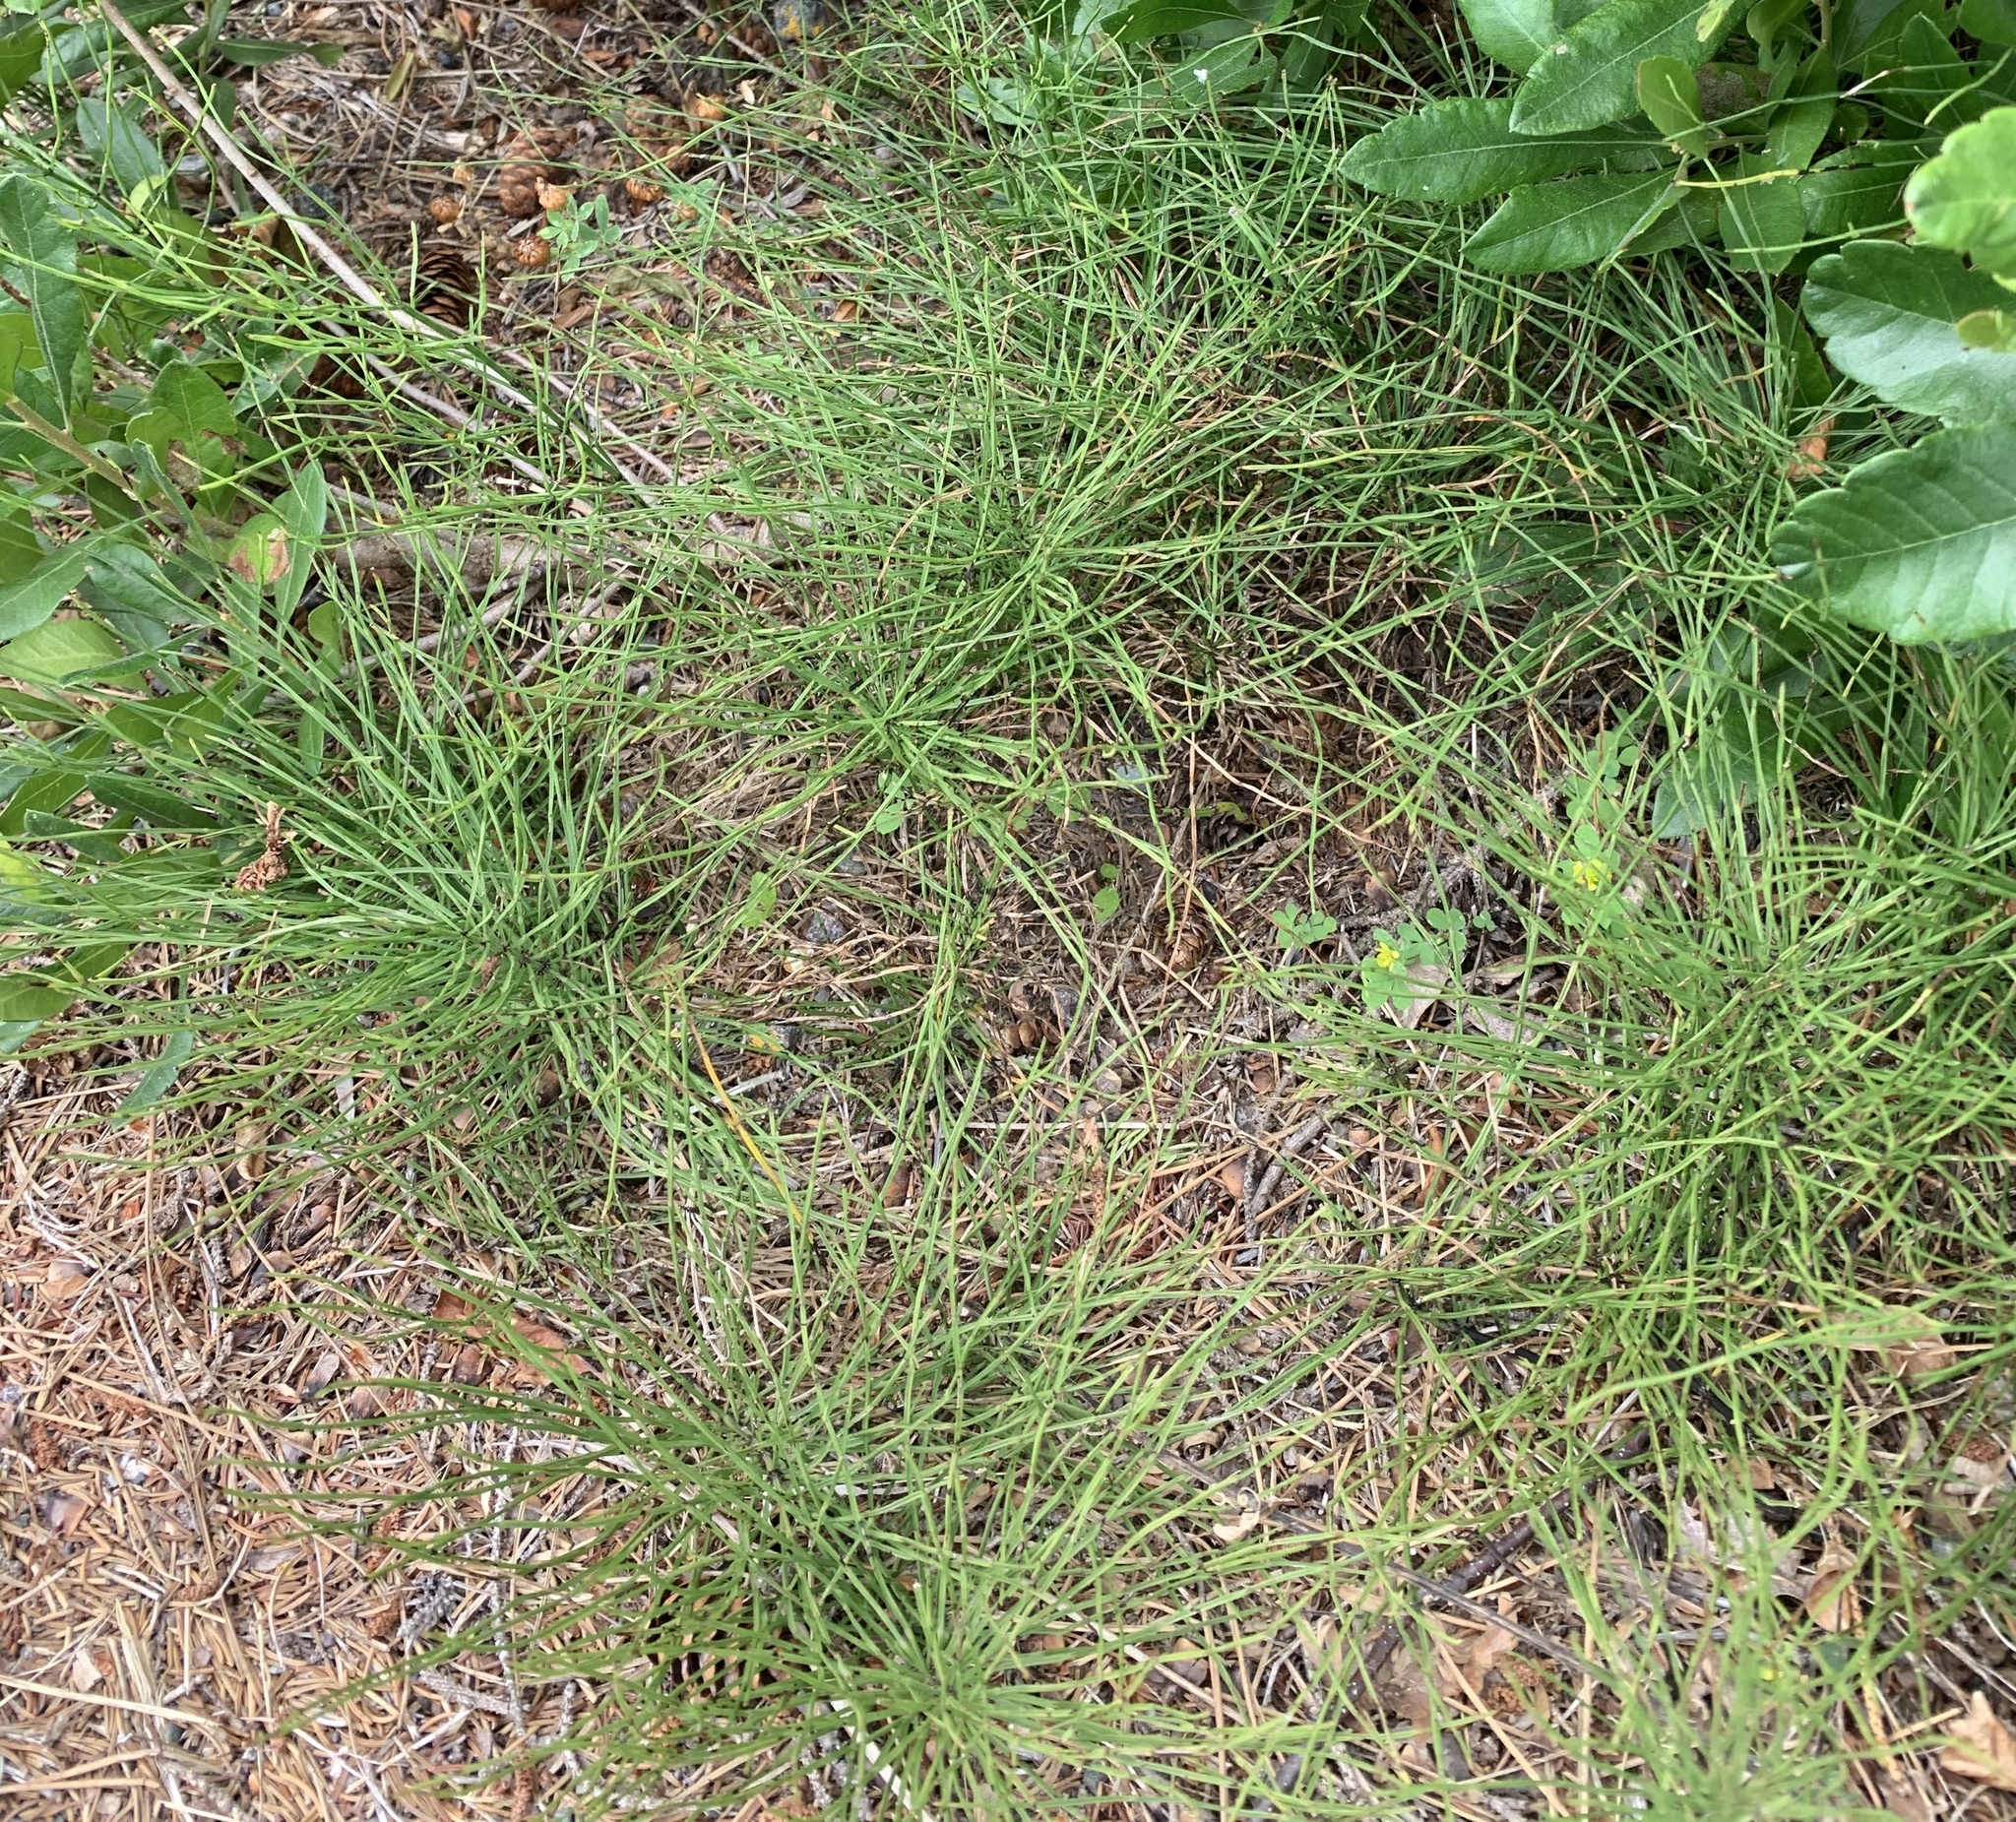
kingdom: Plantae
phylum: Tracheophyta
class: Polypodiopsida
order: Equisetales
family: Equisetaceae
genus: Equisetum
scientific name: Equisetum arvense
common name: Field horsetail
